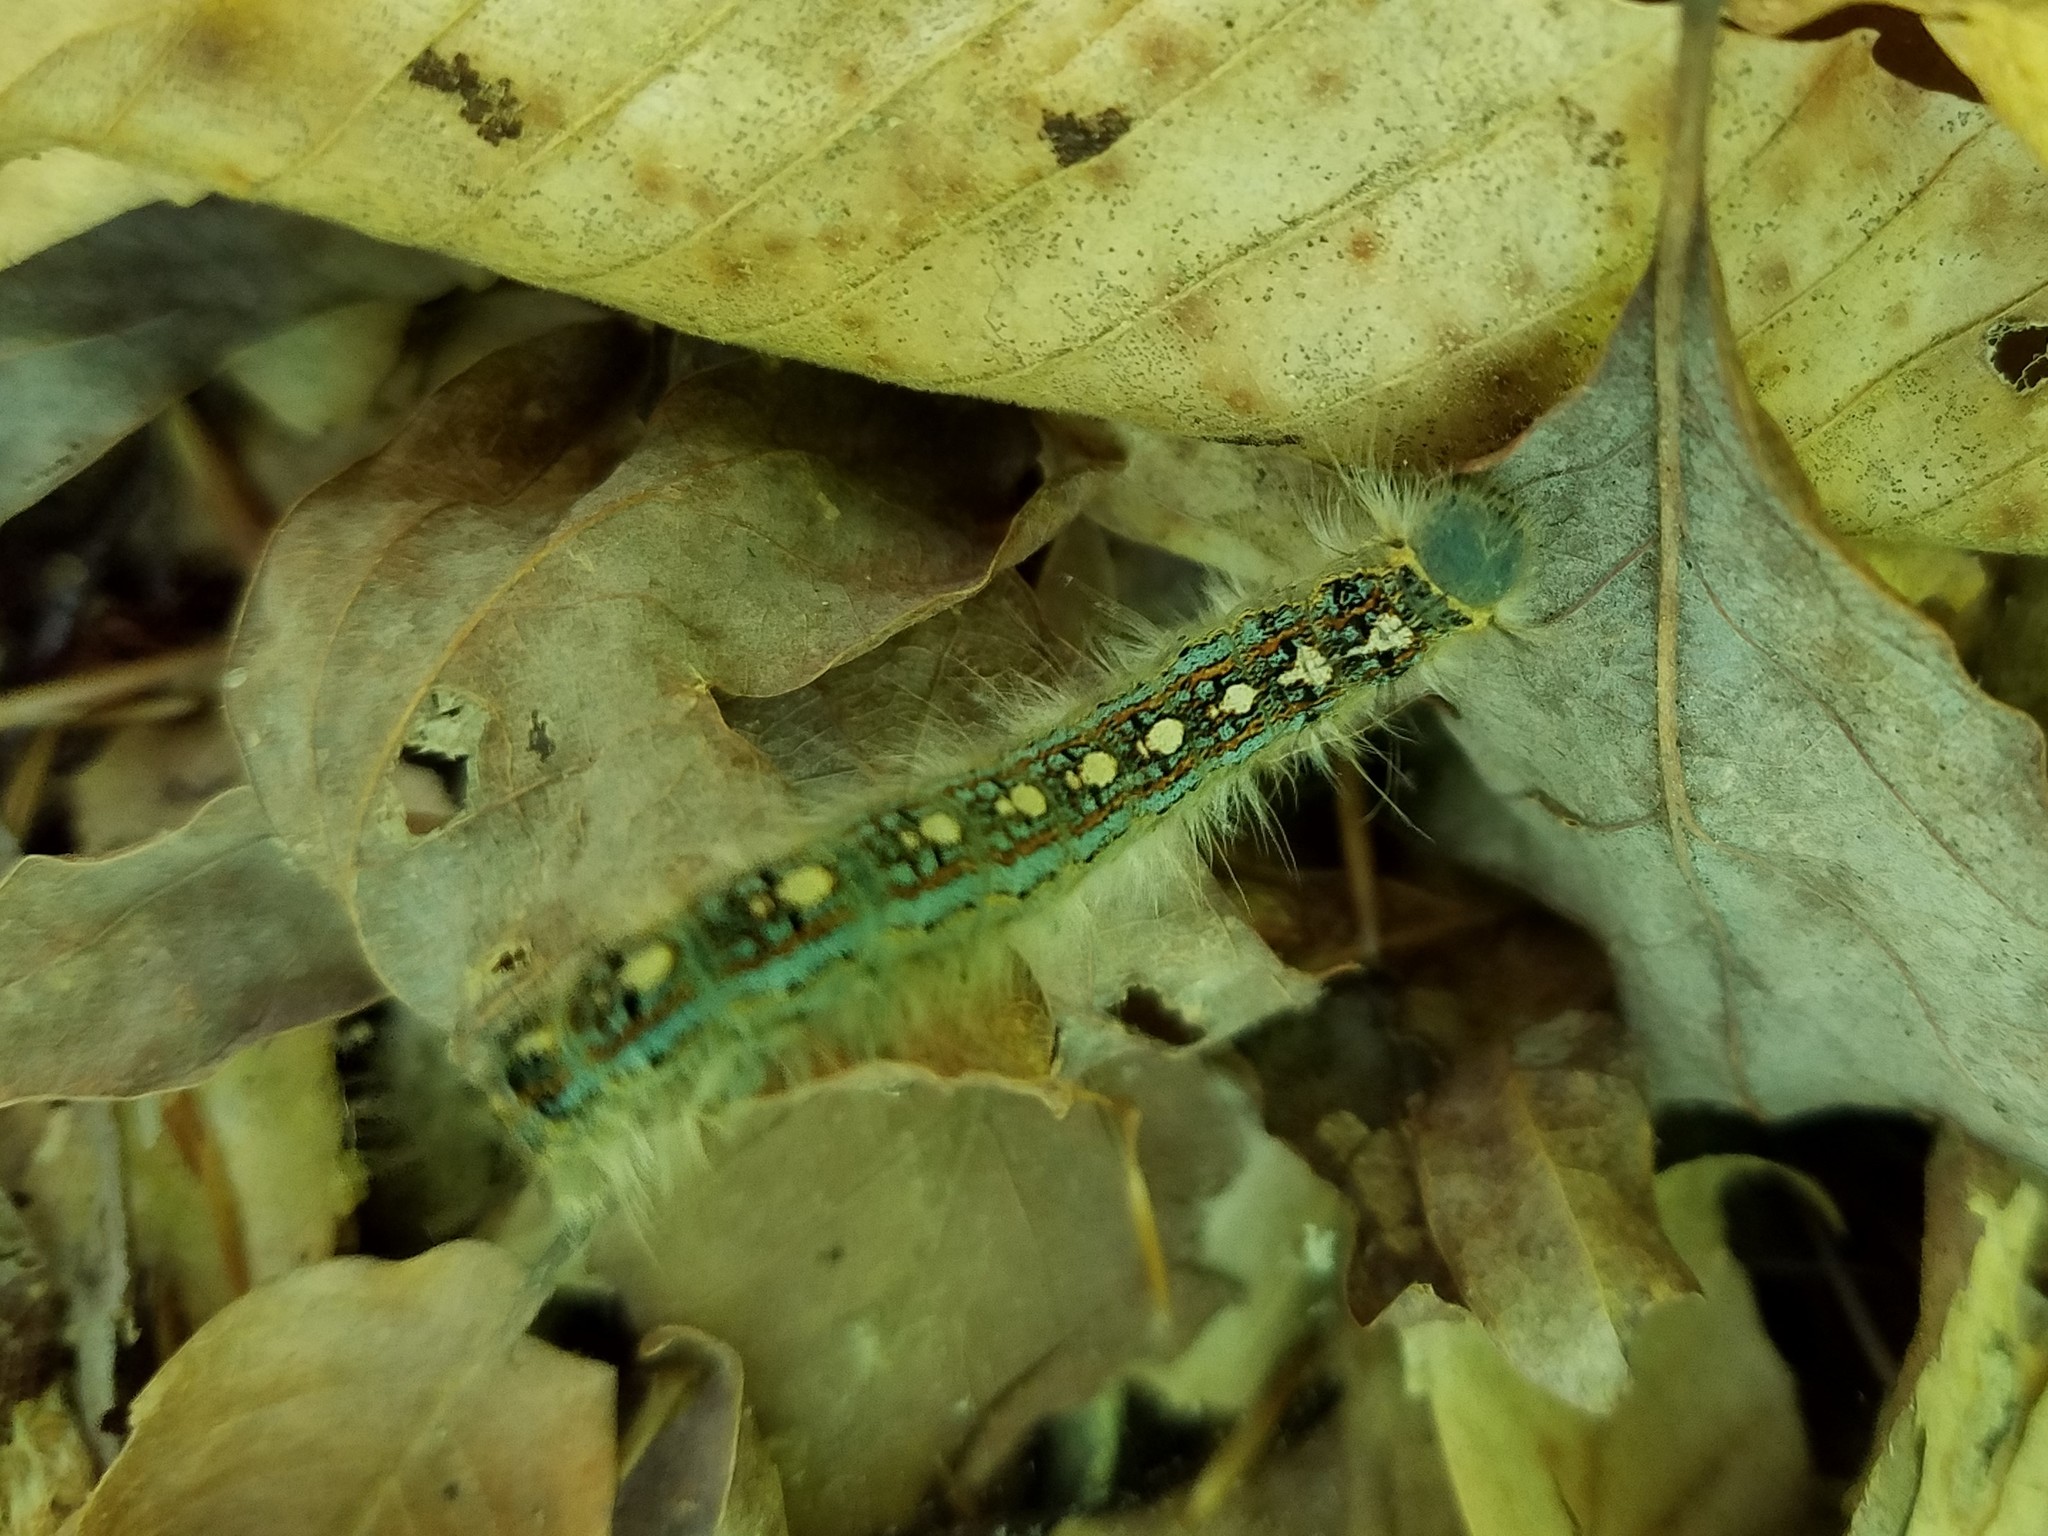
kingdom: Animalia
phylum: Arthropoda
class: Insecta
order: Lepidoptera
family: Lasiocampidae
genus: Malacosoma
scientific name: Malacosoma disstria
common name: Forest tent caterpillar
